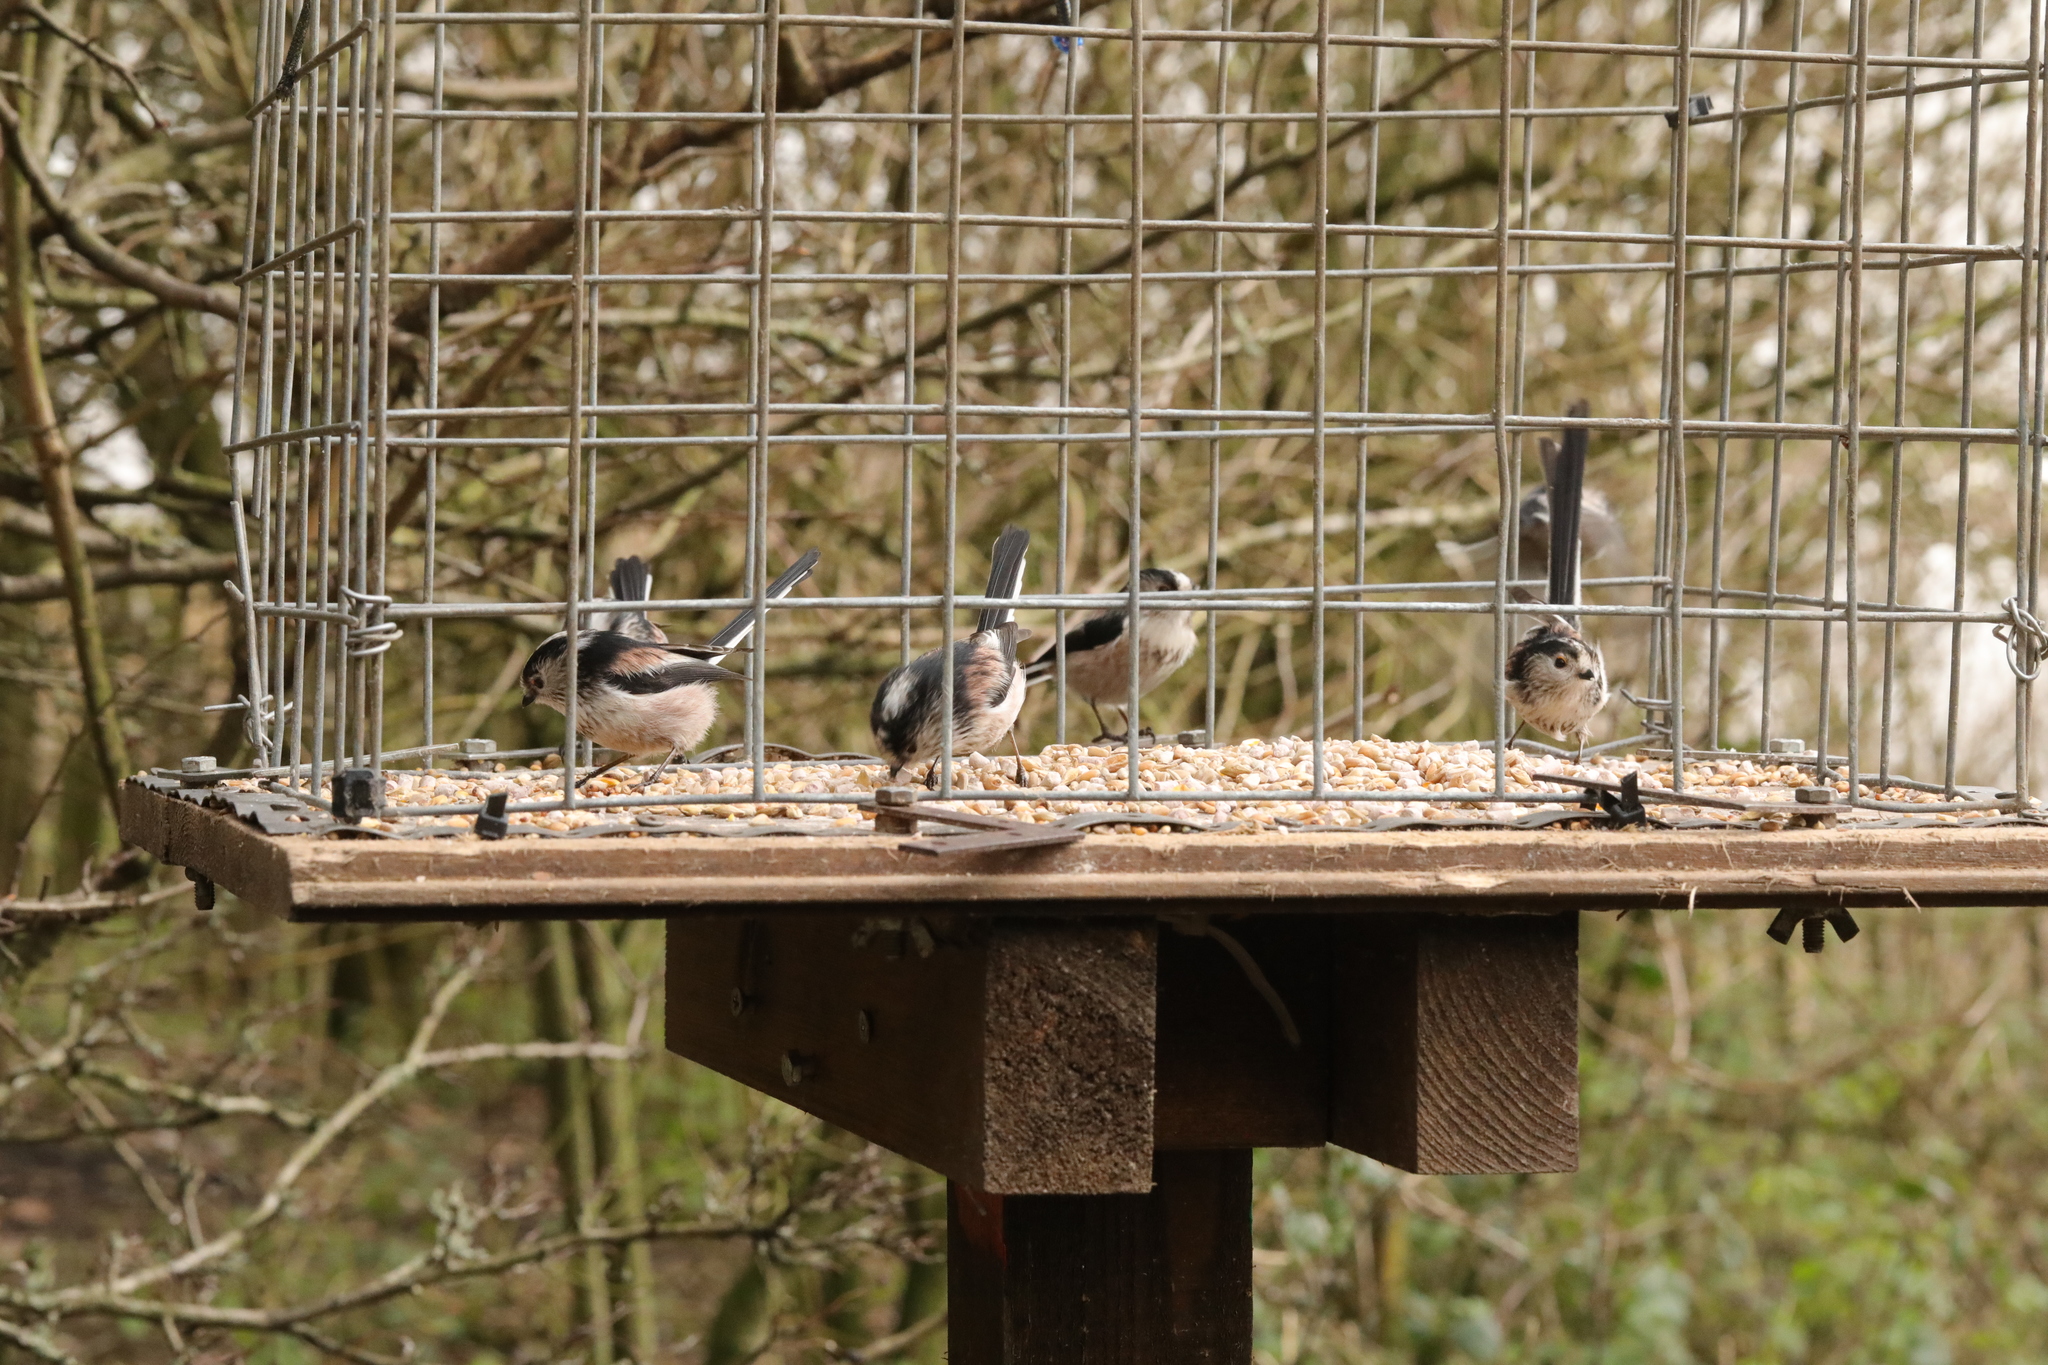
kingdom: Animalia
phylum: Chordata
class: Aves
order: Passeriformes
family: Aegithalidae
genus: Aegithalos
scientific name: Aegithalos caudatus
